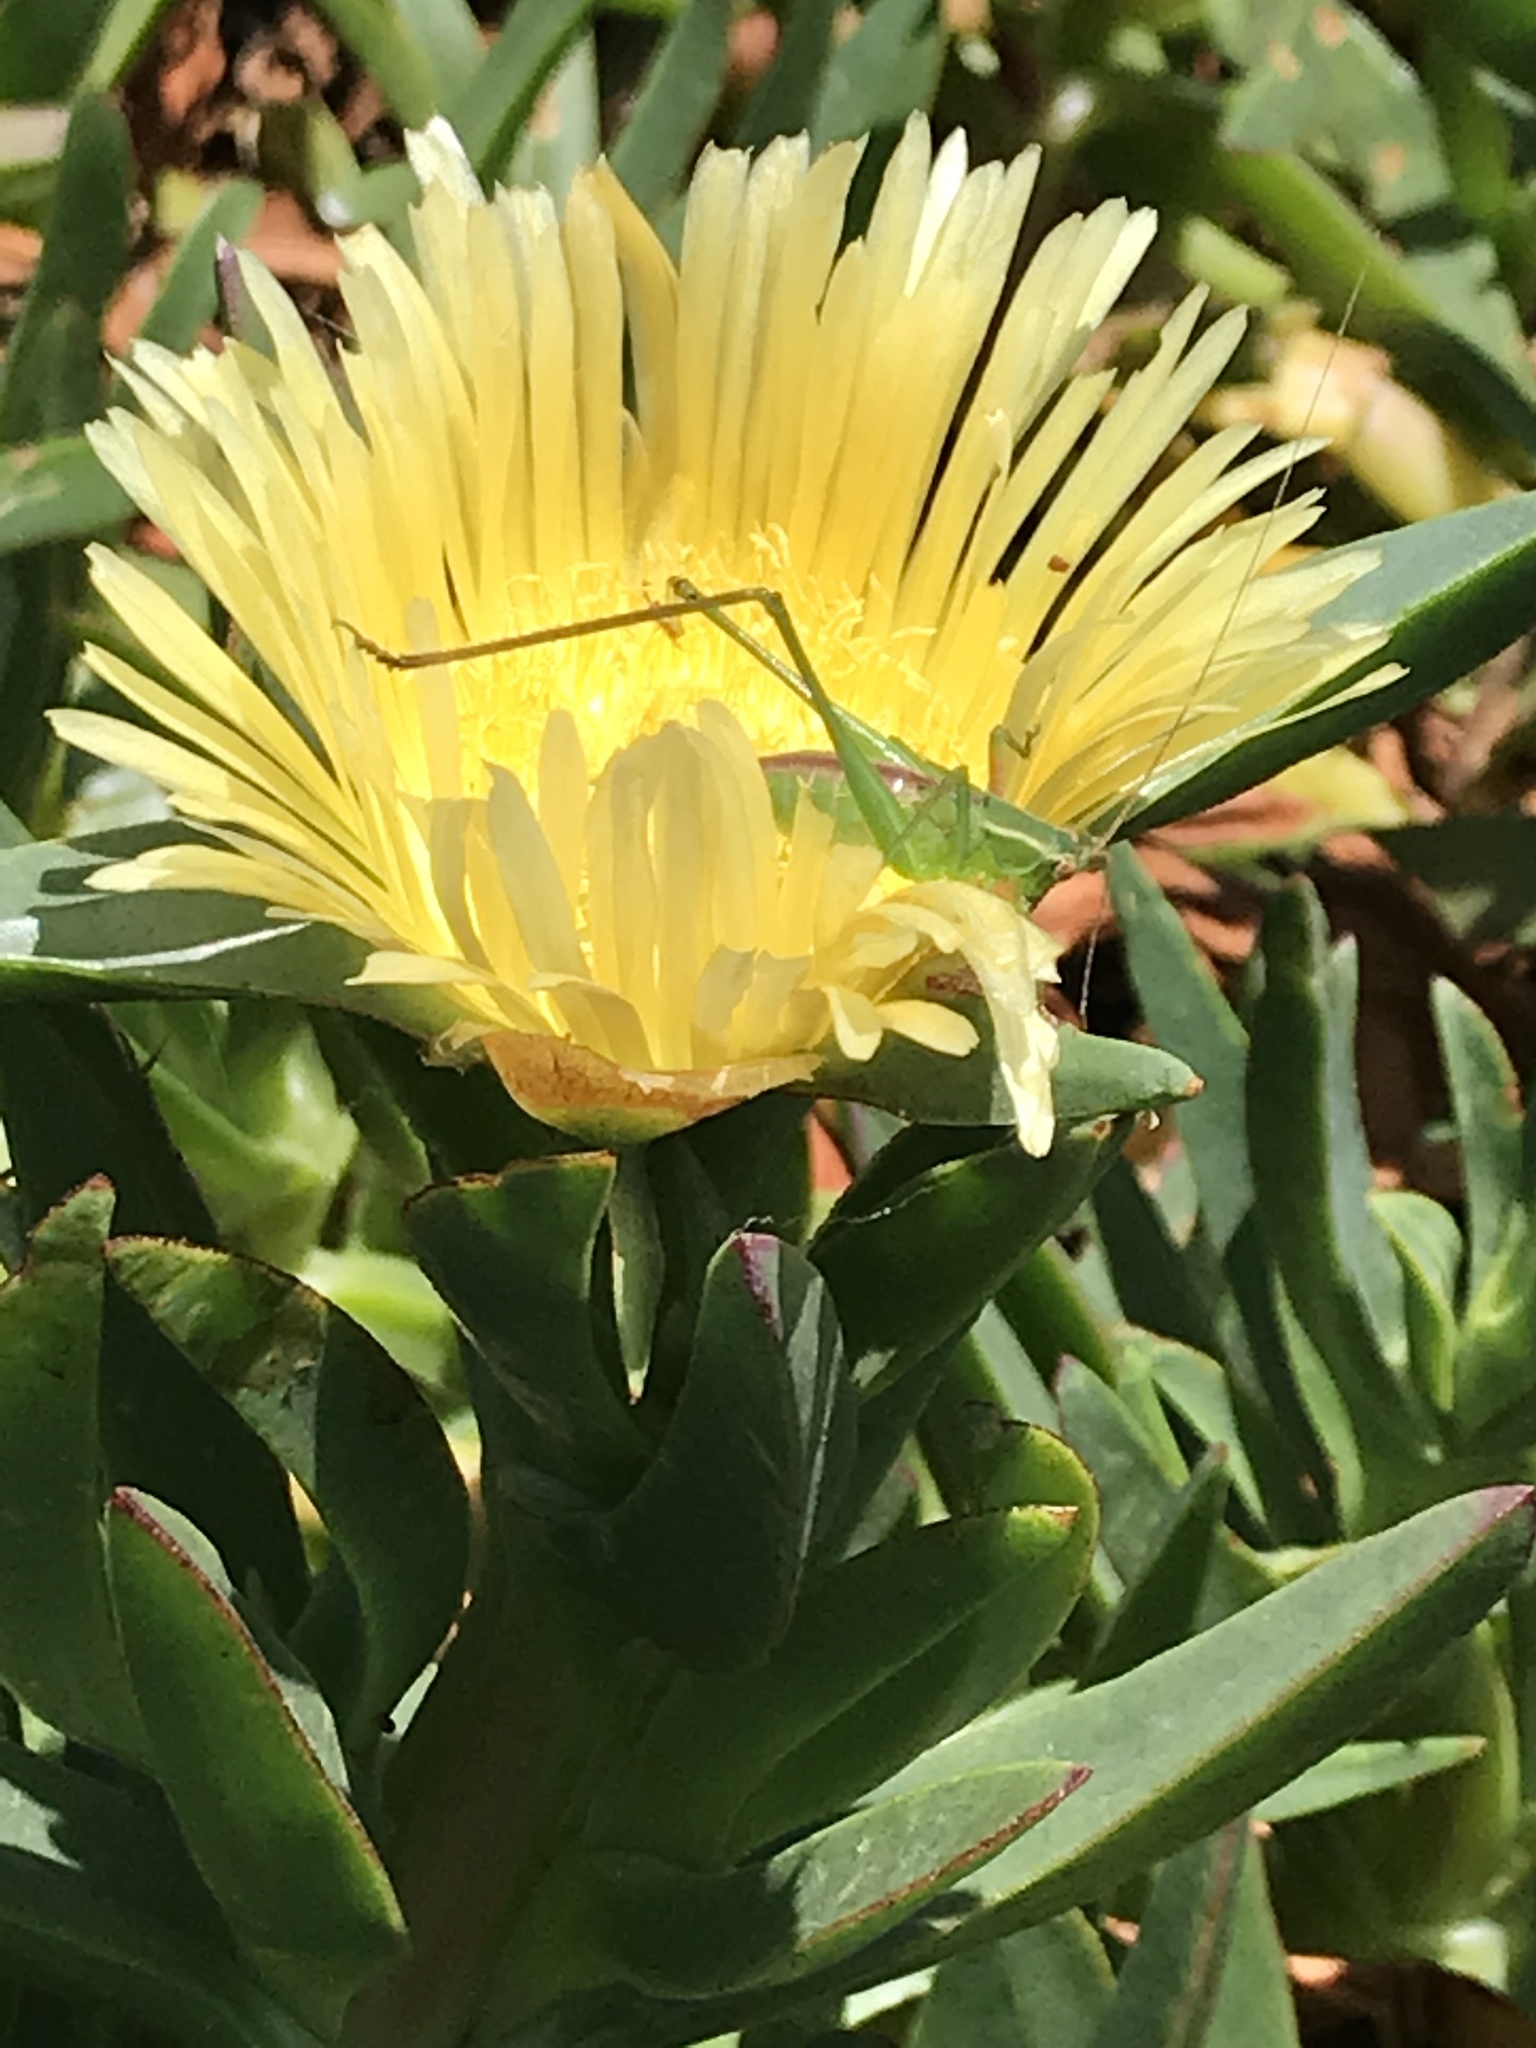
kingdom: Animalia
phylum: Arthropoda
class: Insecta
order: Orthoptera
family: Tettigoniidae
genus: Scudderia
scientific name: Scudderia mexicana
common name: Mexican bush katydid
